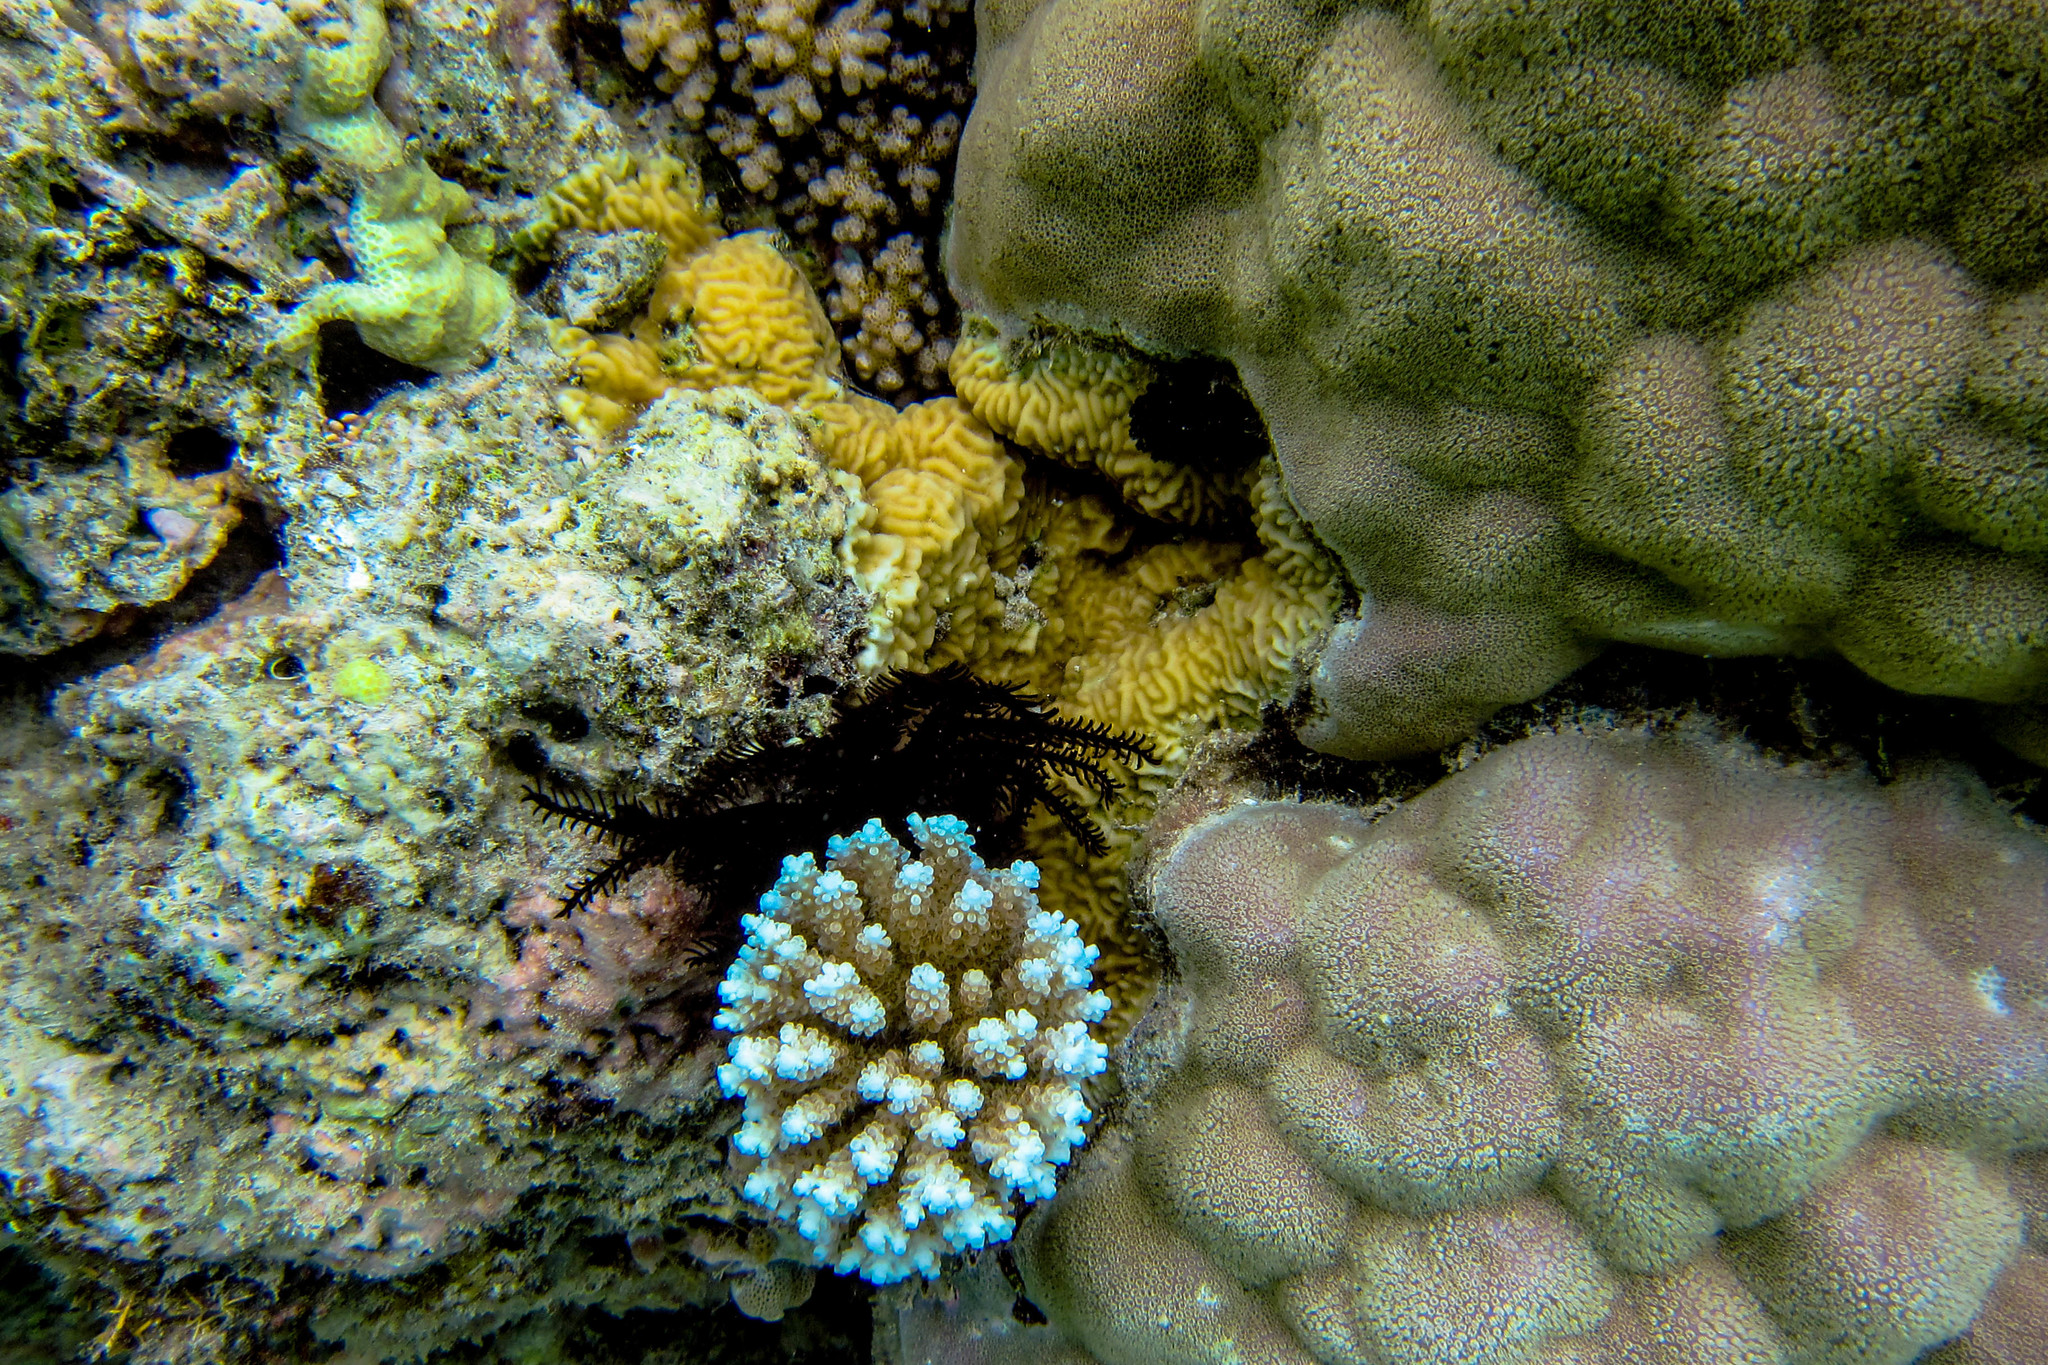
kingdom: Animalia
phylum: Cnidaria
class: Anthozoa
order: Scleractinia
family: Agariciidae
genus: Pavona
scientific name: Pavona varians
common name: Leaf coral
